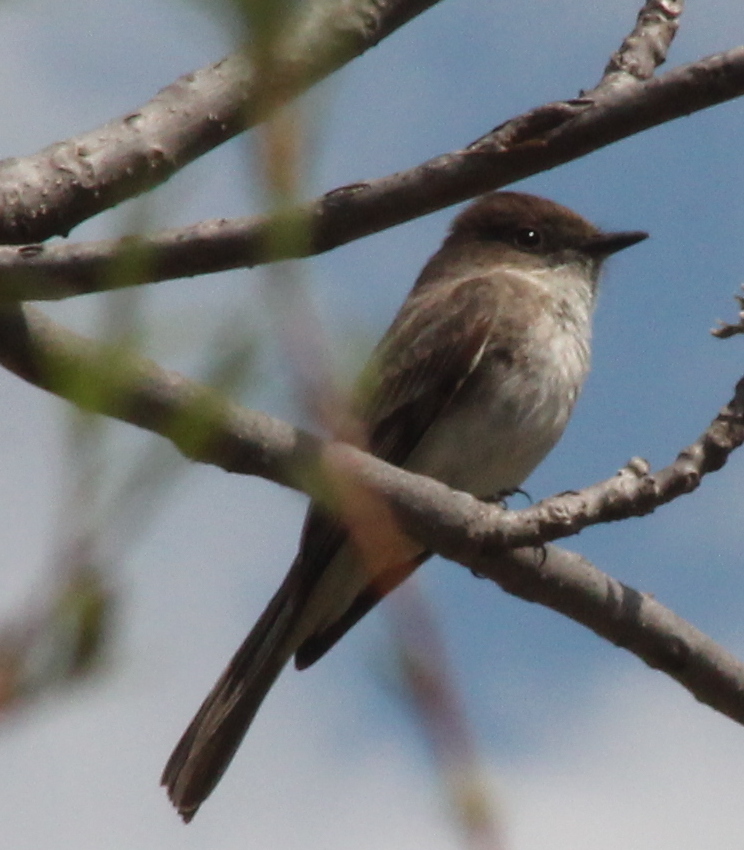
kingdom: Animalia
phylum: Chordata
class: Aves
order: Passeriformes
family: Tyrannidae
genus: Sayornis
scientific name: Sayornis phoebe
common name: Eastern phoebe
